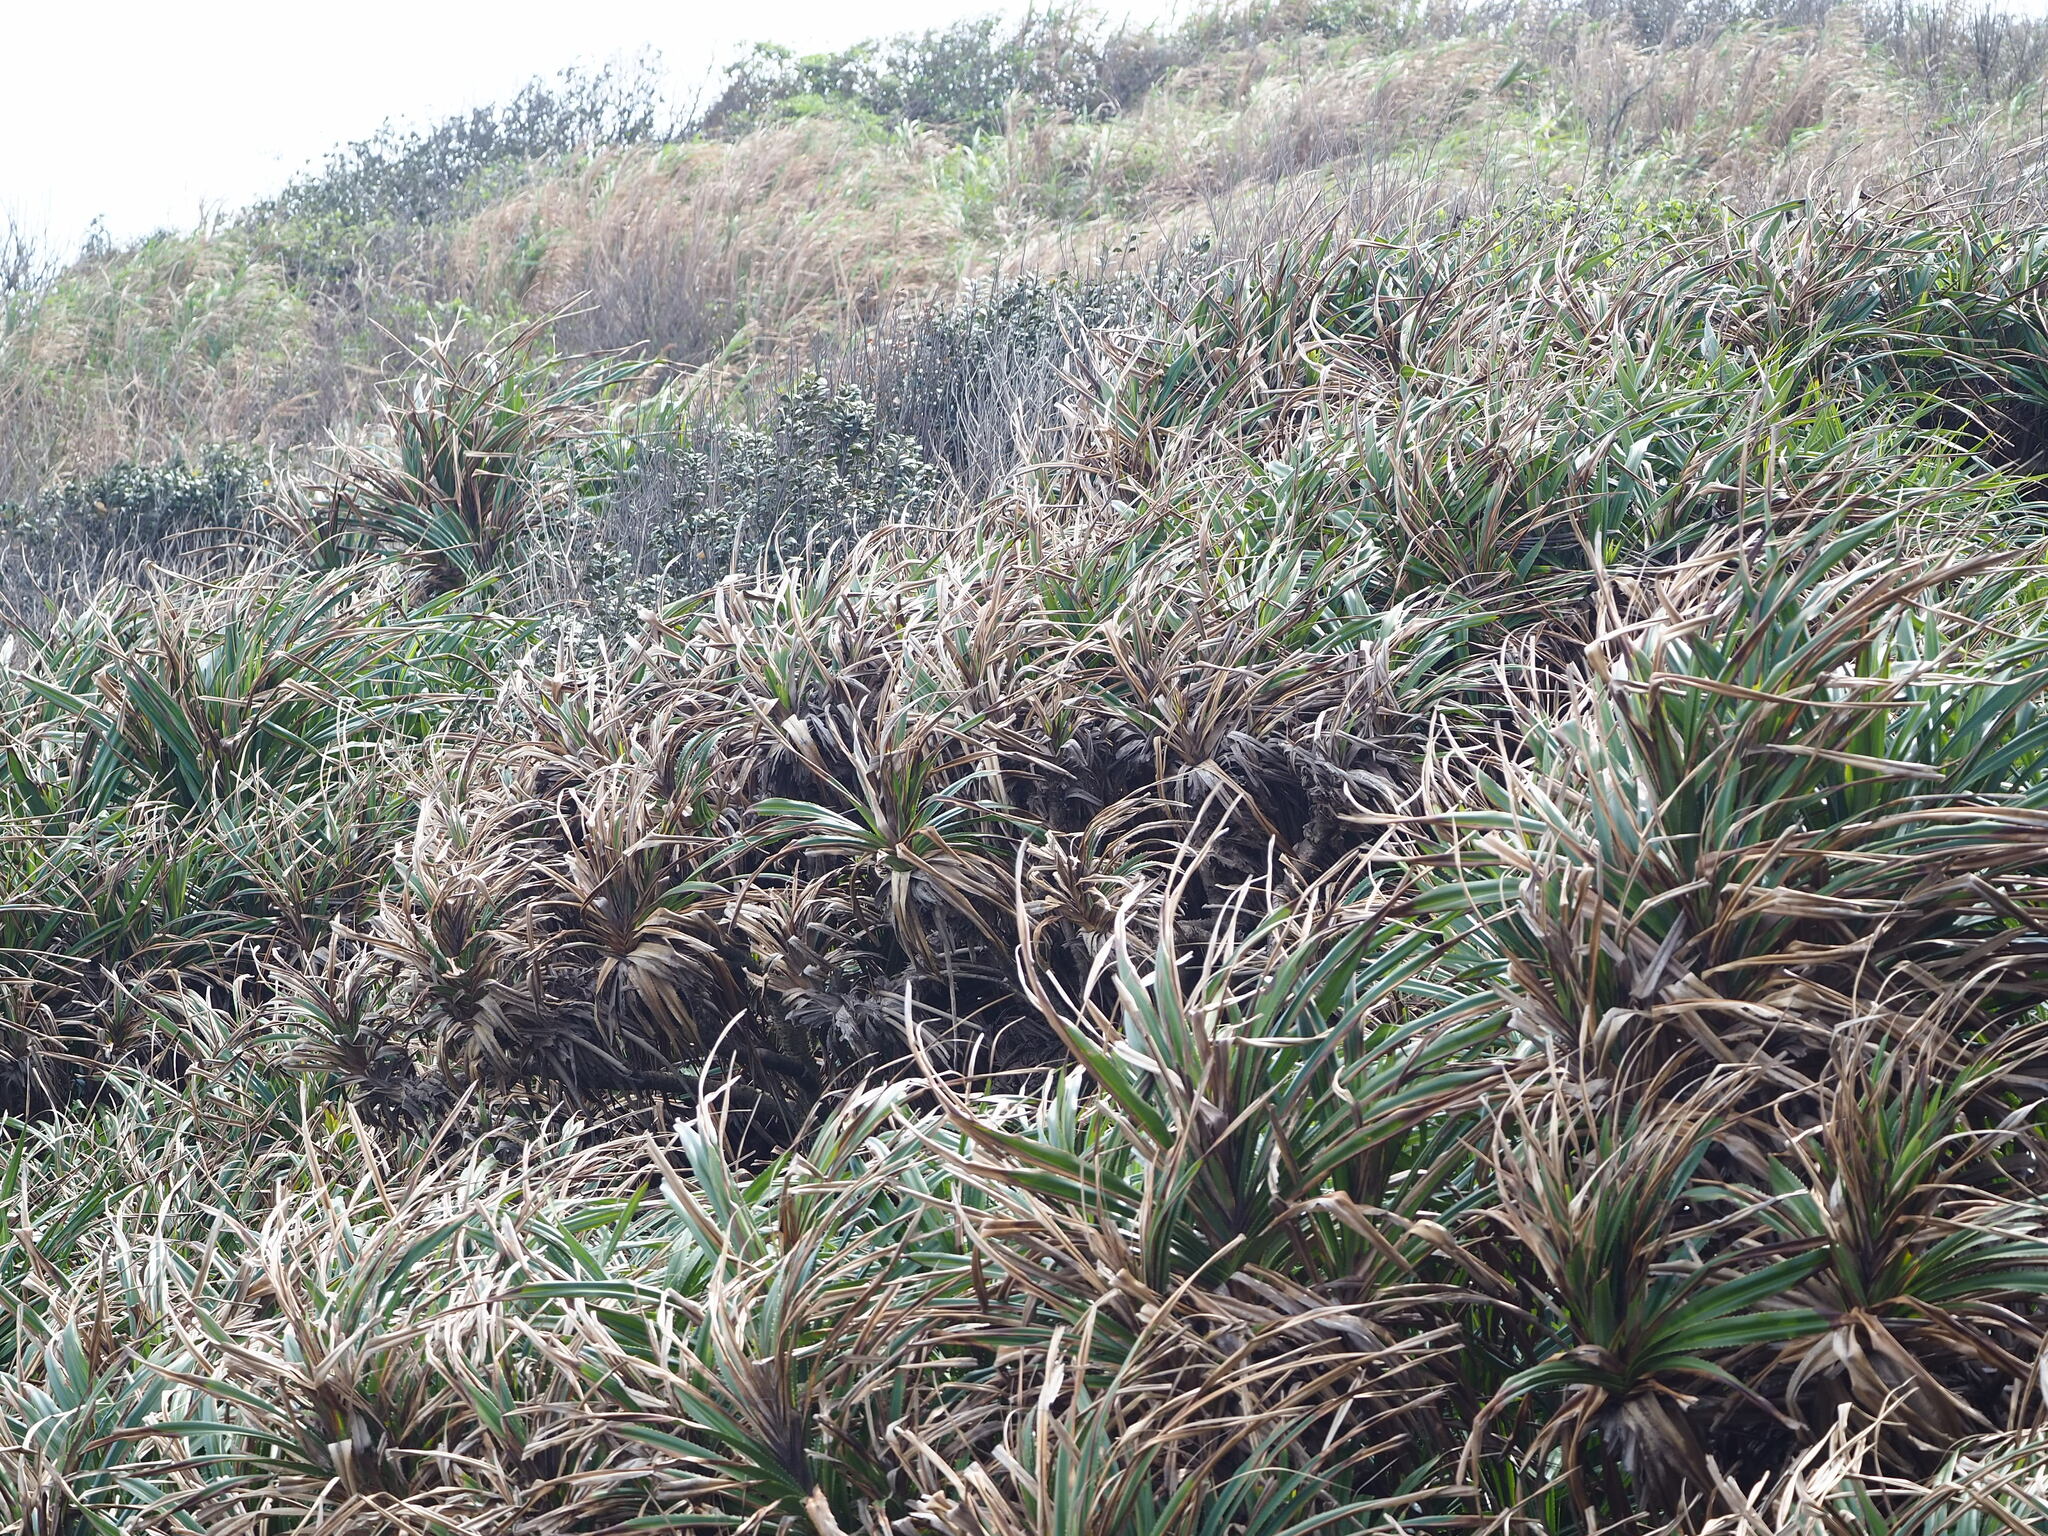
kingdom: Plantae
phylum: Tracheophyta
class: Liliopsida
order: Pandanales
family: Pandanaceae
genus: Pandanus
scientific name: Pandanus odorifer
